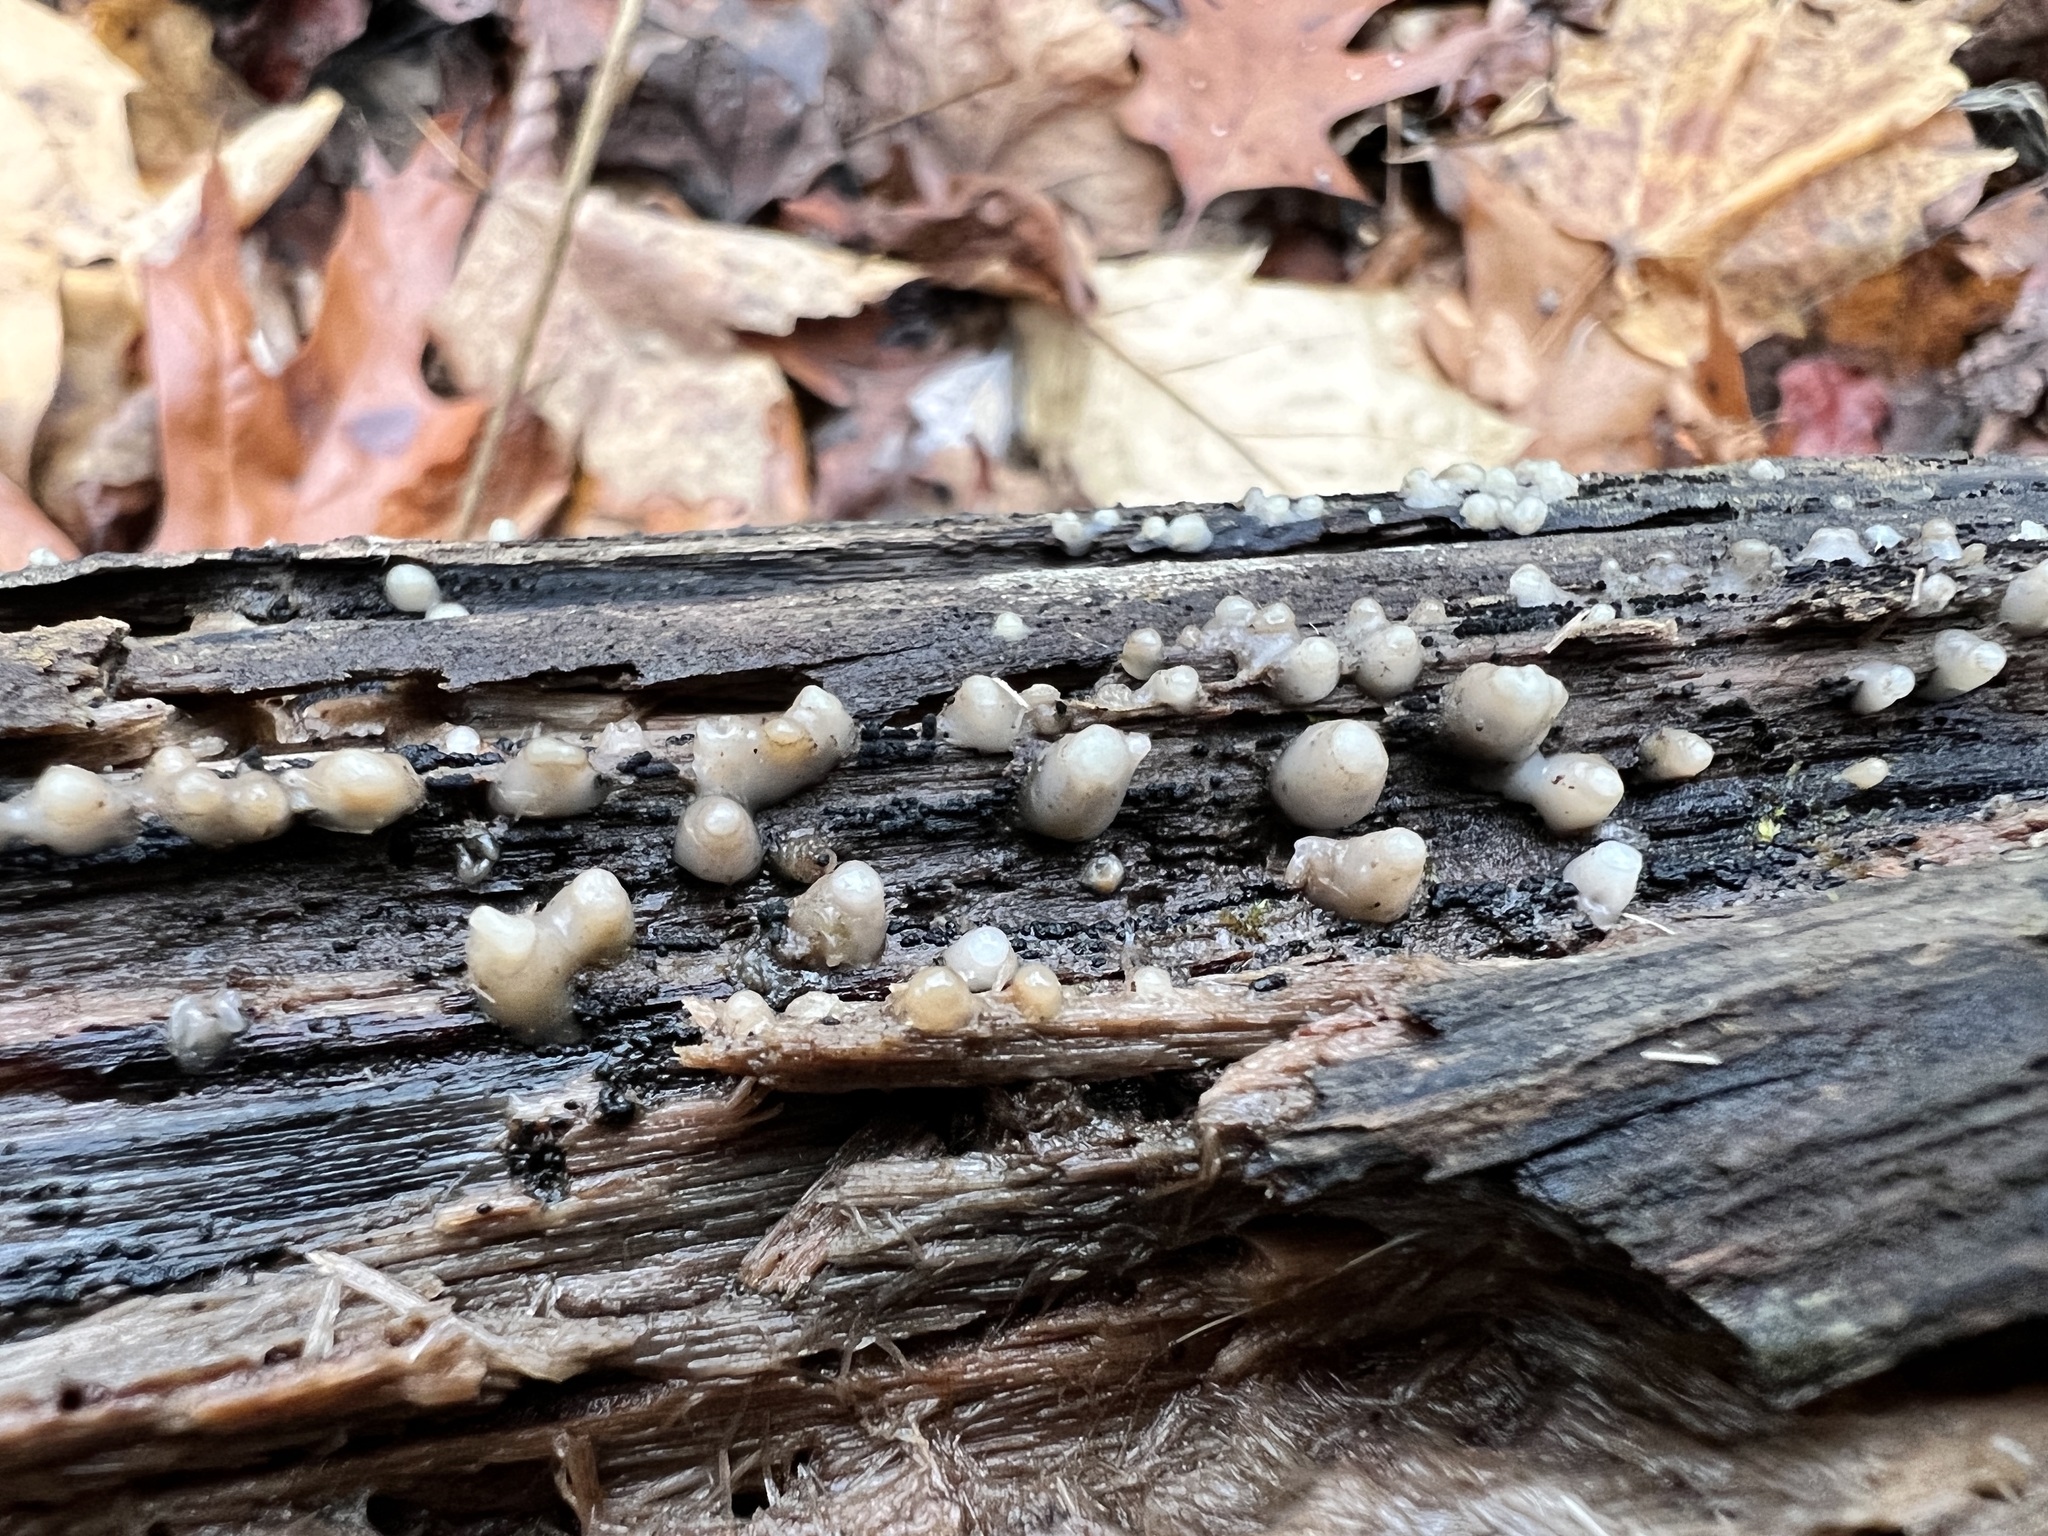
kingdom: Fungi
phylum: Basidiomycota
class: Atractiellomycetes
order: Atractiellales
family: Phleogenaceae
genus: Helicogloea
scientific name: Helicogloea compressa
